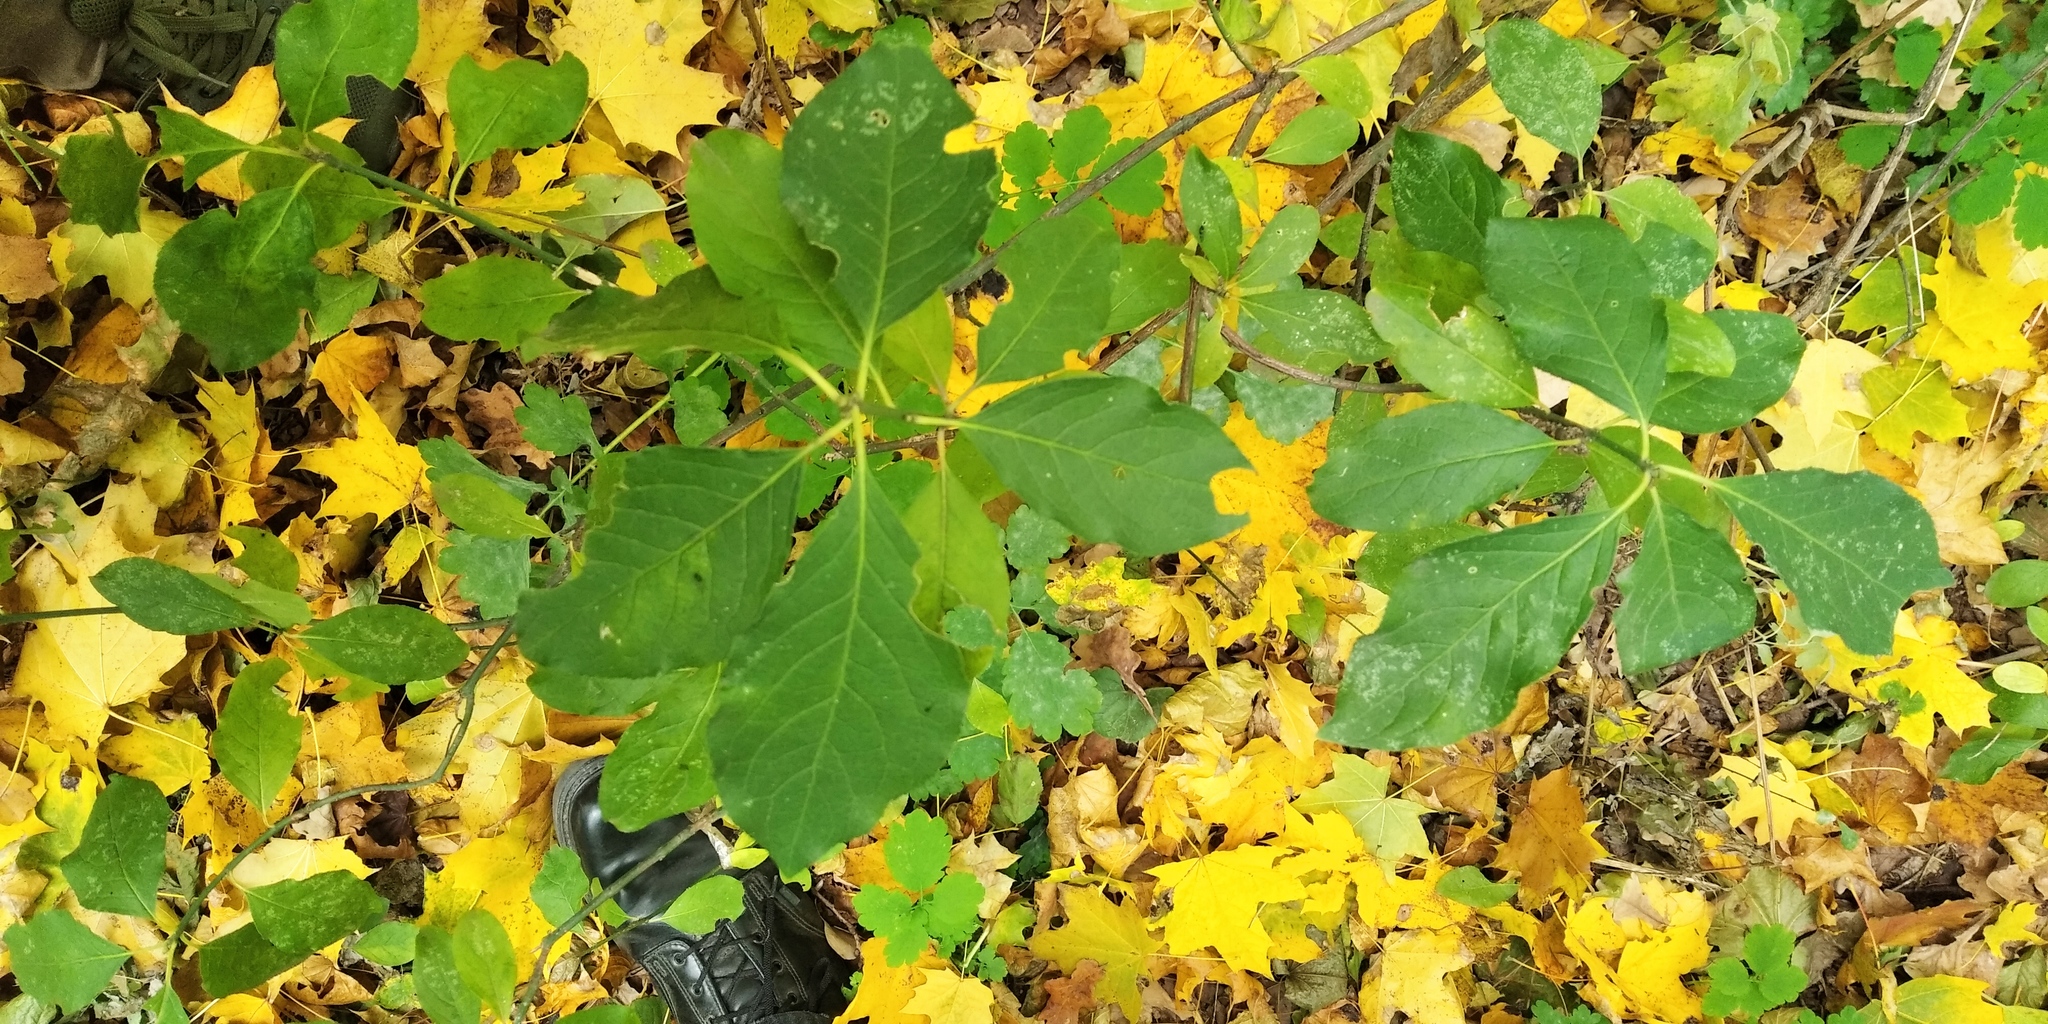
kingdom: Plantae
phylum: Tracheophyta
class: Magnoliopsida
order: Celastrales
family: Celastraceae
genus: Euonymus
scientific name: Euonymus europaeus
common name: Spindle
